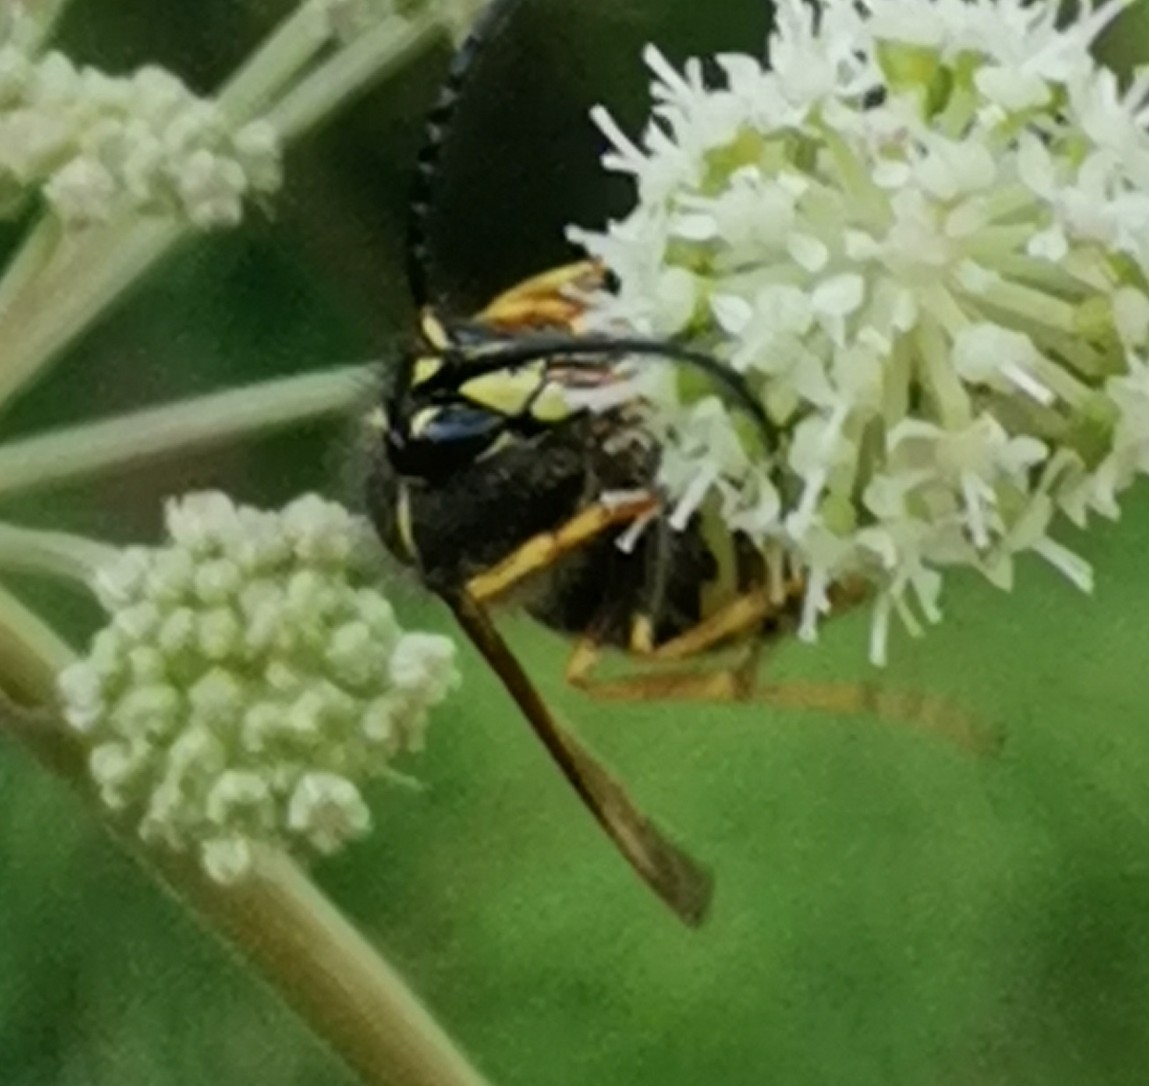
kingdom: Animalia
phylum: Arthropoda
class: Insecta
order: Hymenoptera
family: Vespidae
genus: Dolichovespula
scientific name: Dolichovespula saxonica
